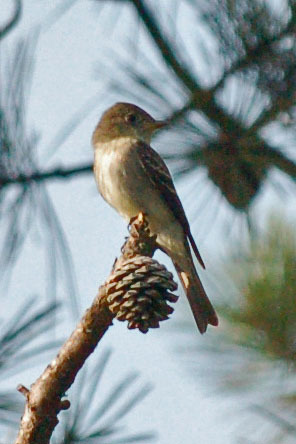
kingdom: Animalia
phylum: Chordata
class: Aves
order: Passeriformes
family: Tyrannidae
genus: Contopus
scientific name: Contopus virens
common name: Eastern wood-pewee
